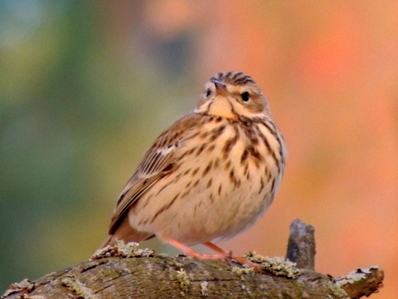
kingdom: Animalia
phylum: Chordata
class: Aves
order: Passeriformes
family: Motacillidae
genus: Anthus
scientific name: Anthus trivialis
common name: Tree pipit
